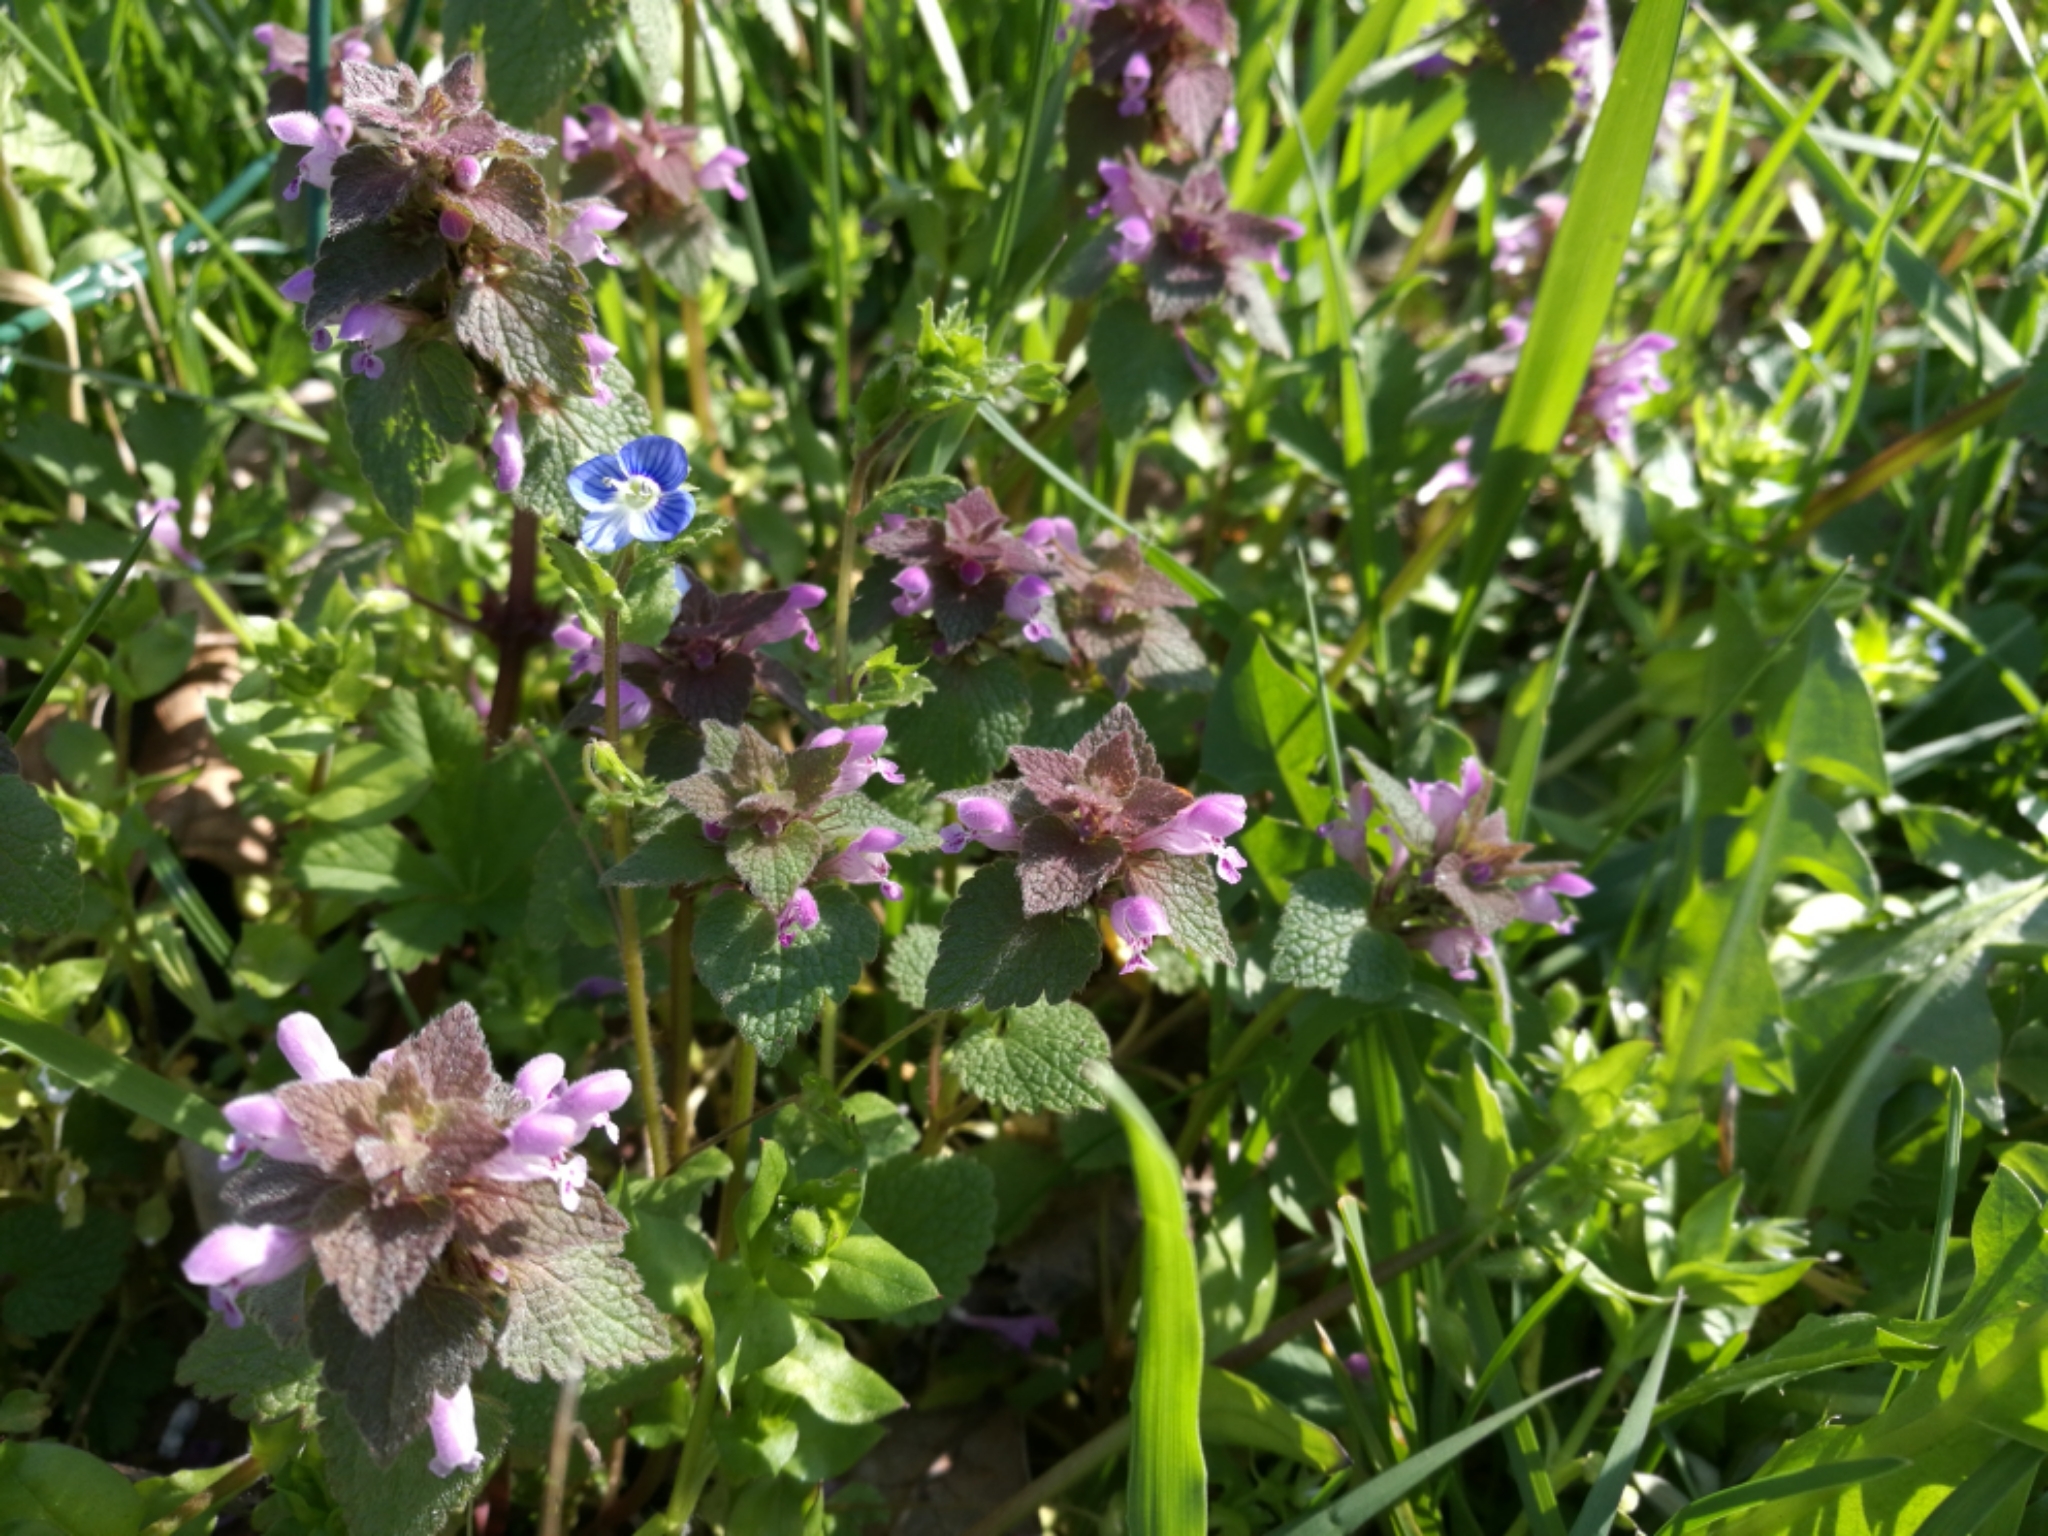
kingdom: Plantae
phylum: Tracheophyta
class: Magnoliopsida
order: Lamiales
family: Lamiaceae
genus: Lamium
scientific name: Lamium purpureum
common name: Red dead-nettle
